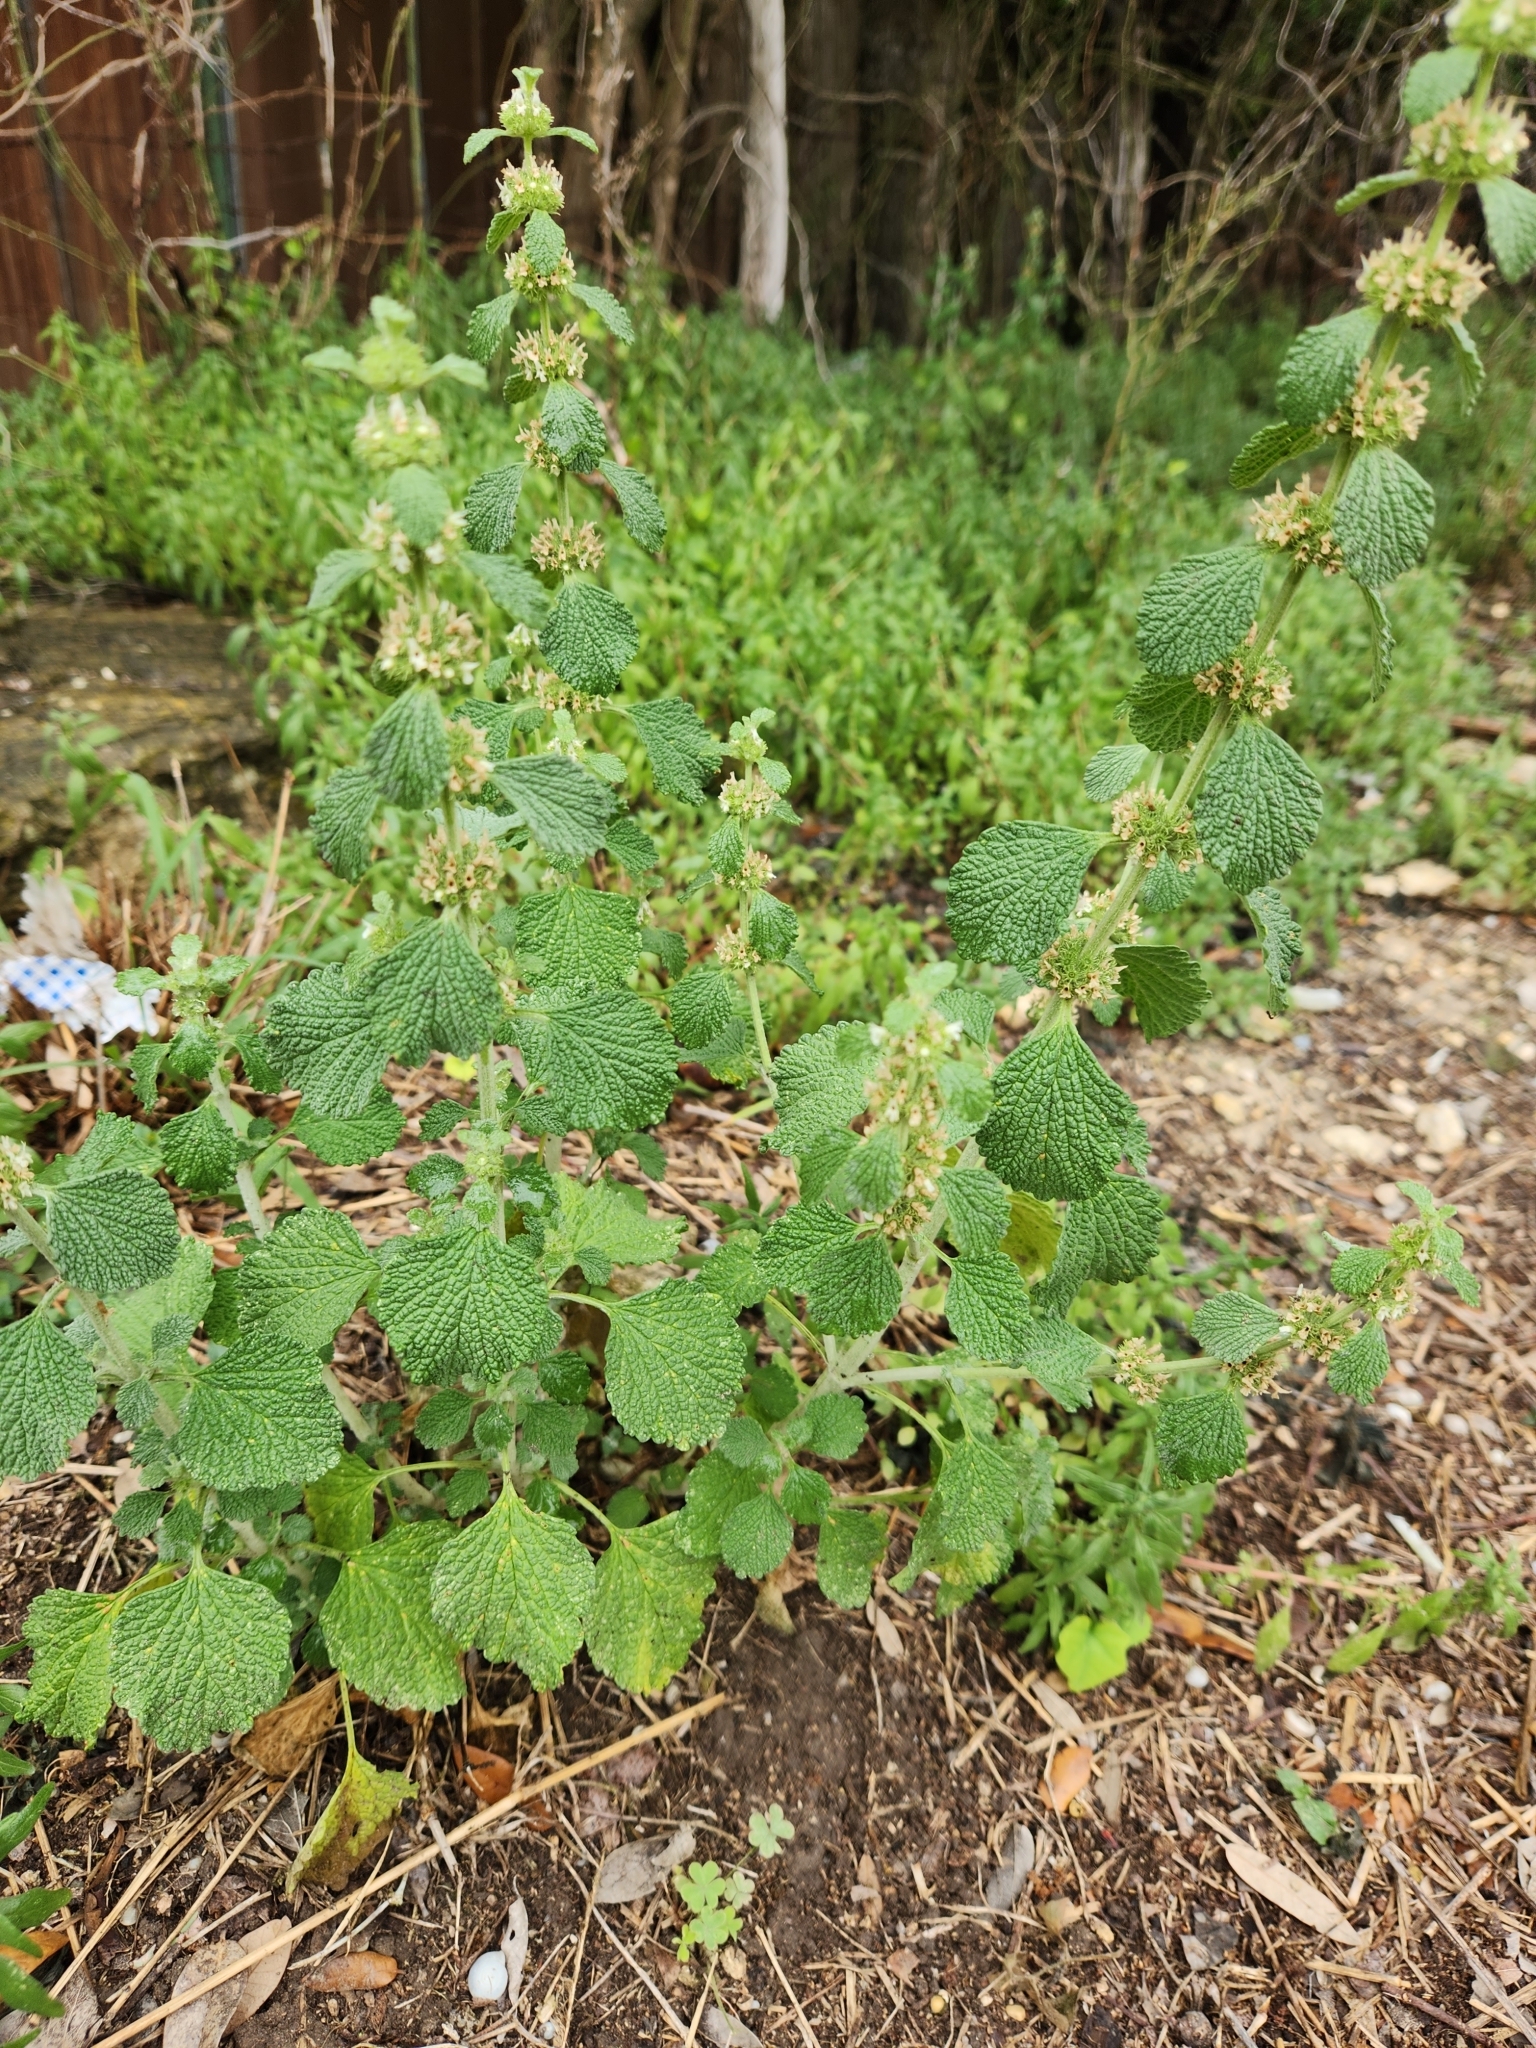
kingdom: Plantae
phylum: Tracheophyta
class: Magnoliopsida
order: Lamiales
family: Lamiaceae
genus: Marrubium
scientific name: Marrubium vulgare
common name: Horehound
